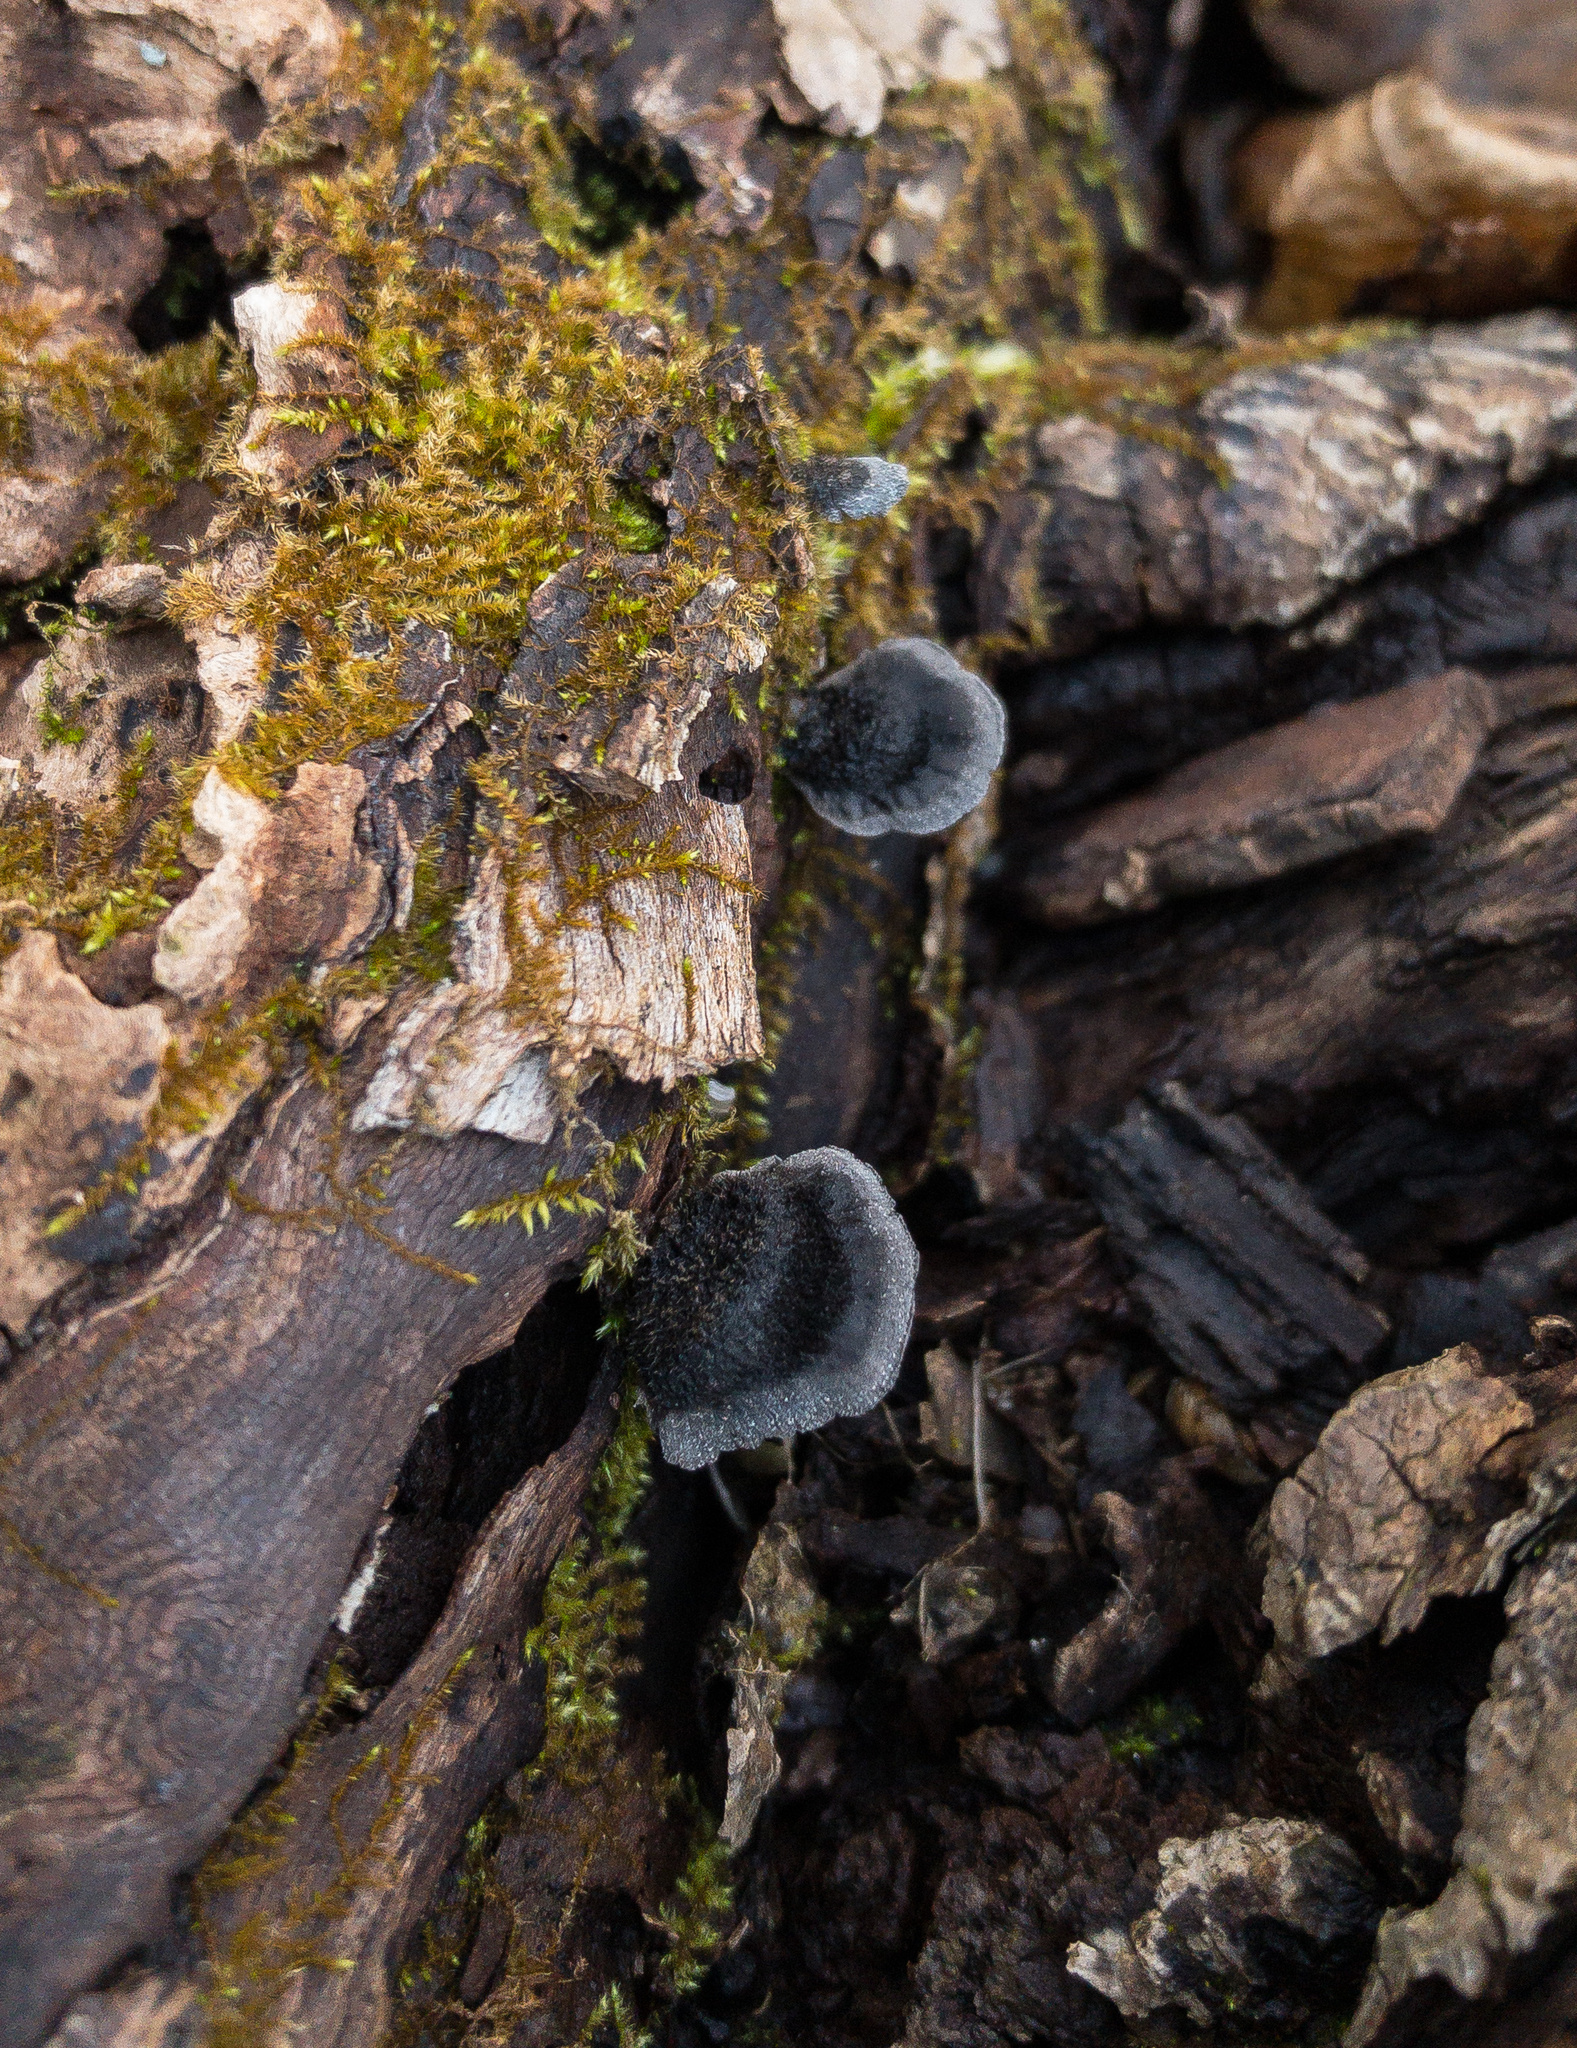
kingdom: Fungi
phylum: Basidiomycota
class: Agaricomycetes
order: Agaricales
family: Pleurotaceae
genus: Resupinatus
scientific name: Resupinatus applicatus
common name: Smoked oysterling
